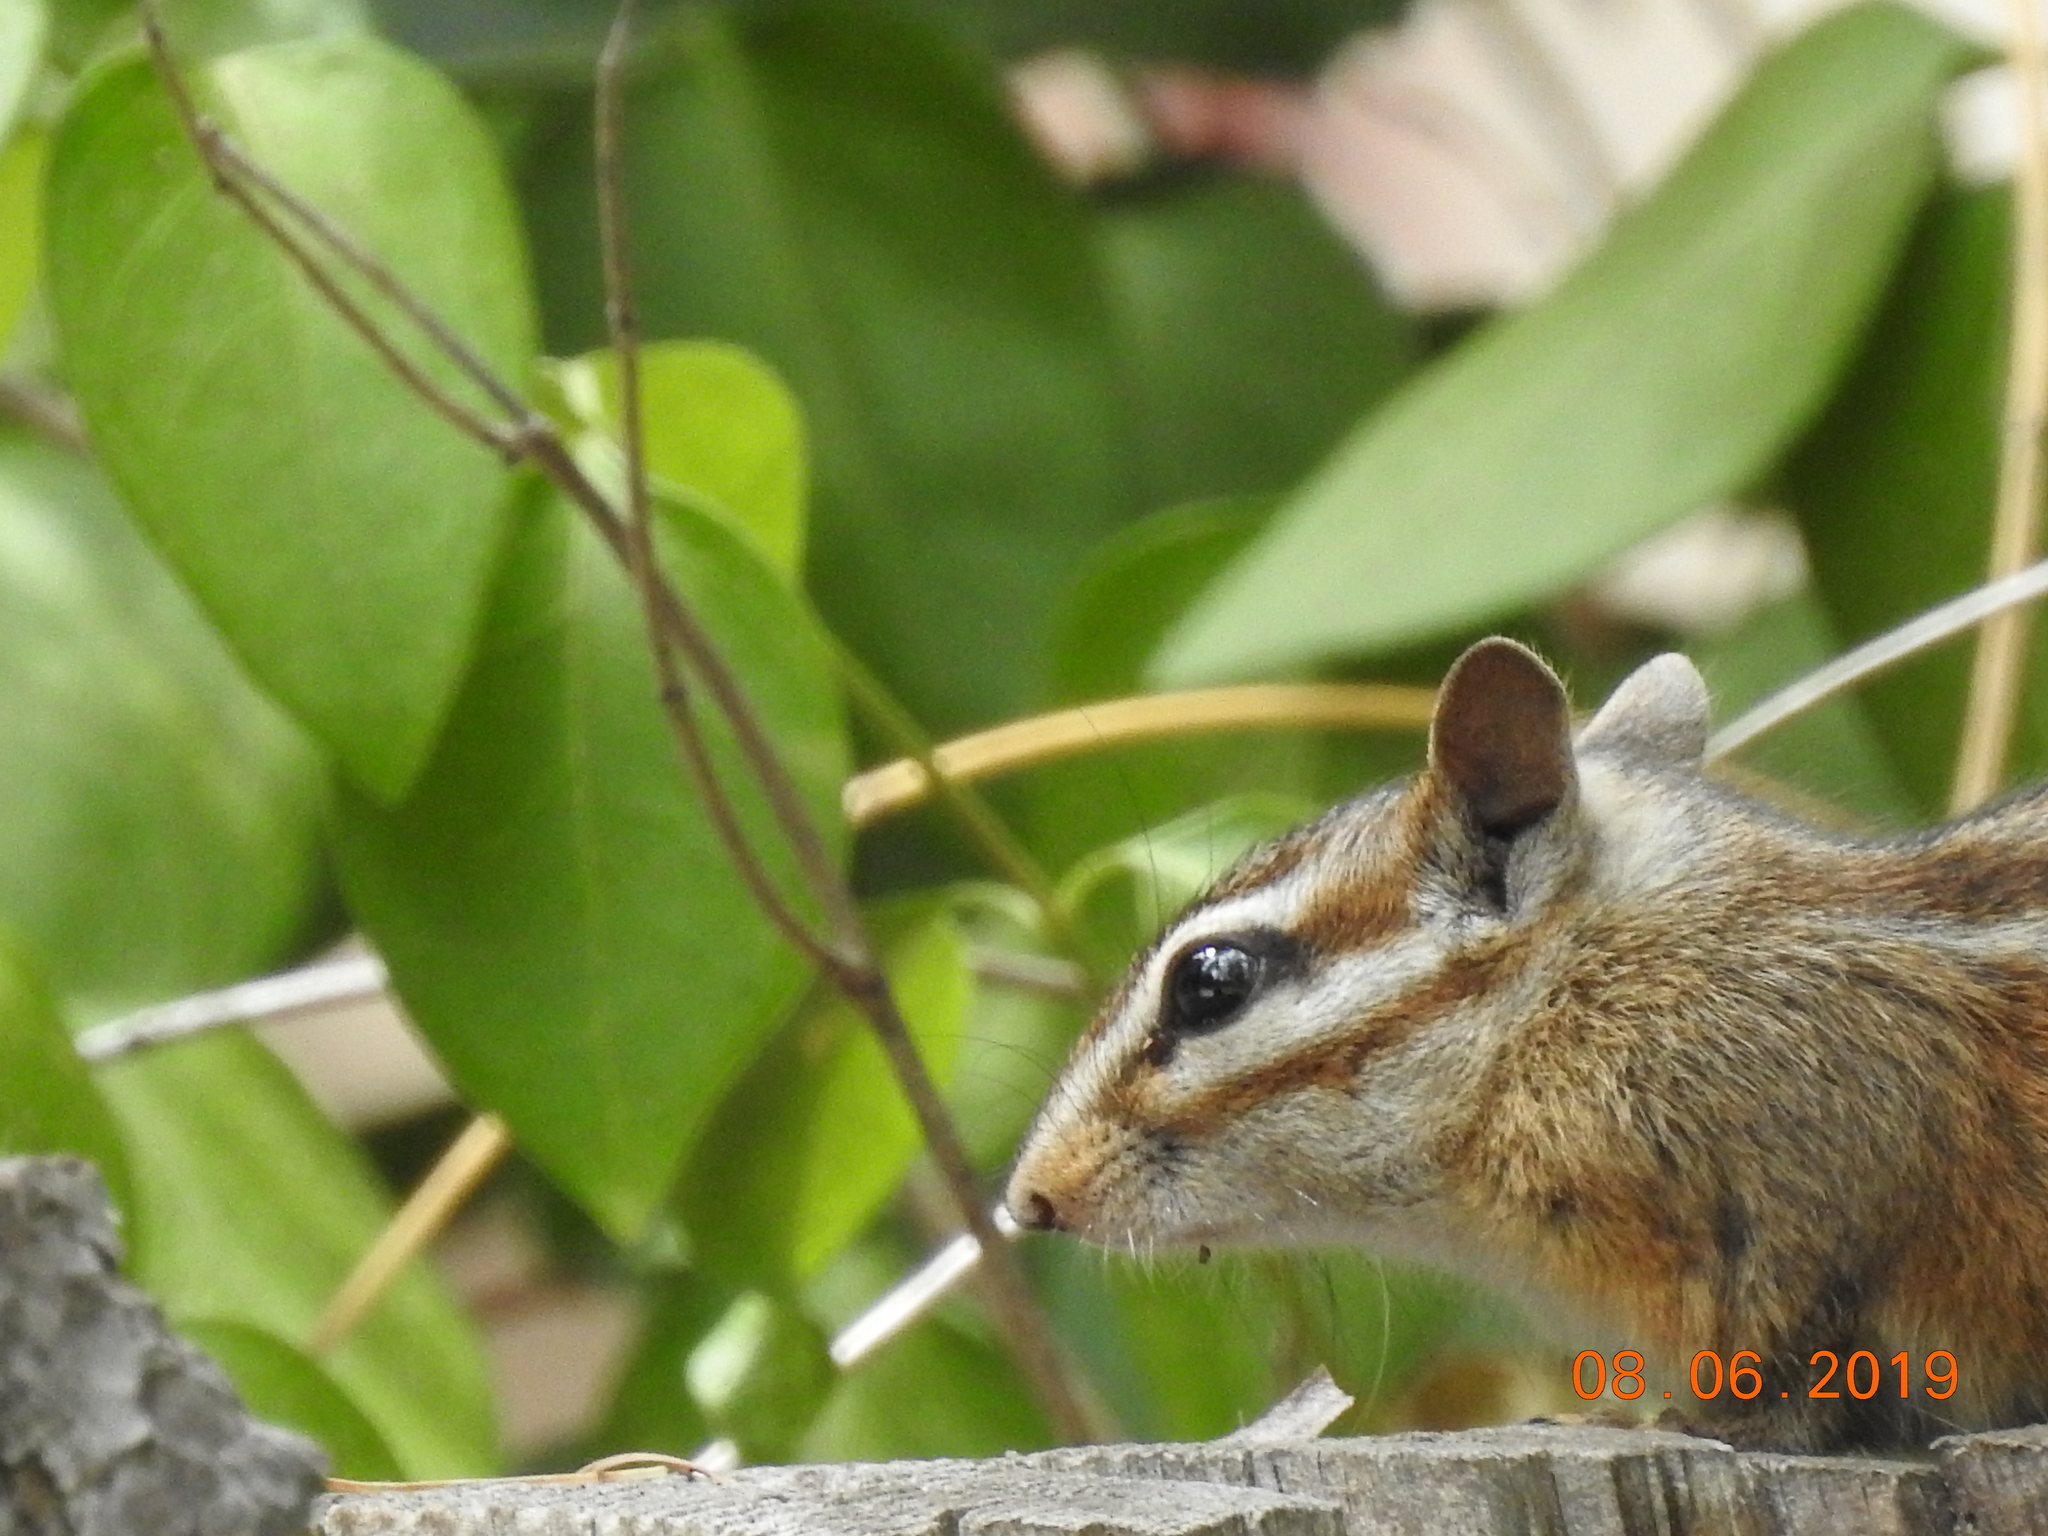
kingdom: Animalia
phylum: Chordata
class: Mammalia
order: Rodentia
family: Sciuridae
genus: Tamias
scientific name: Tamias merriami
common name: Merriam's chipmunk
